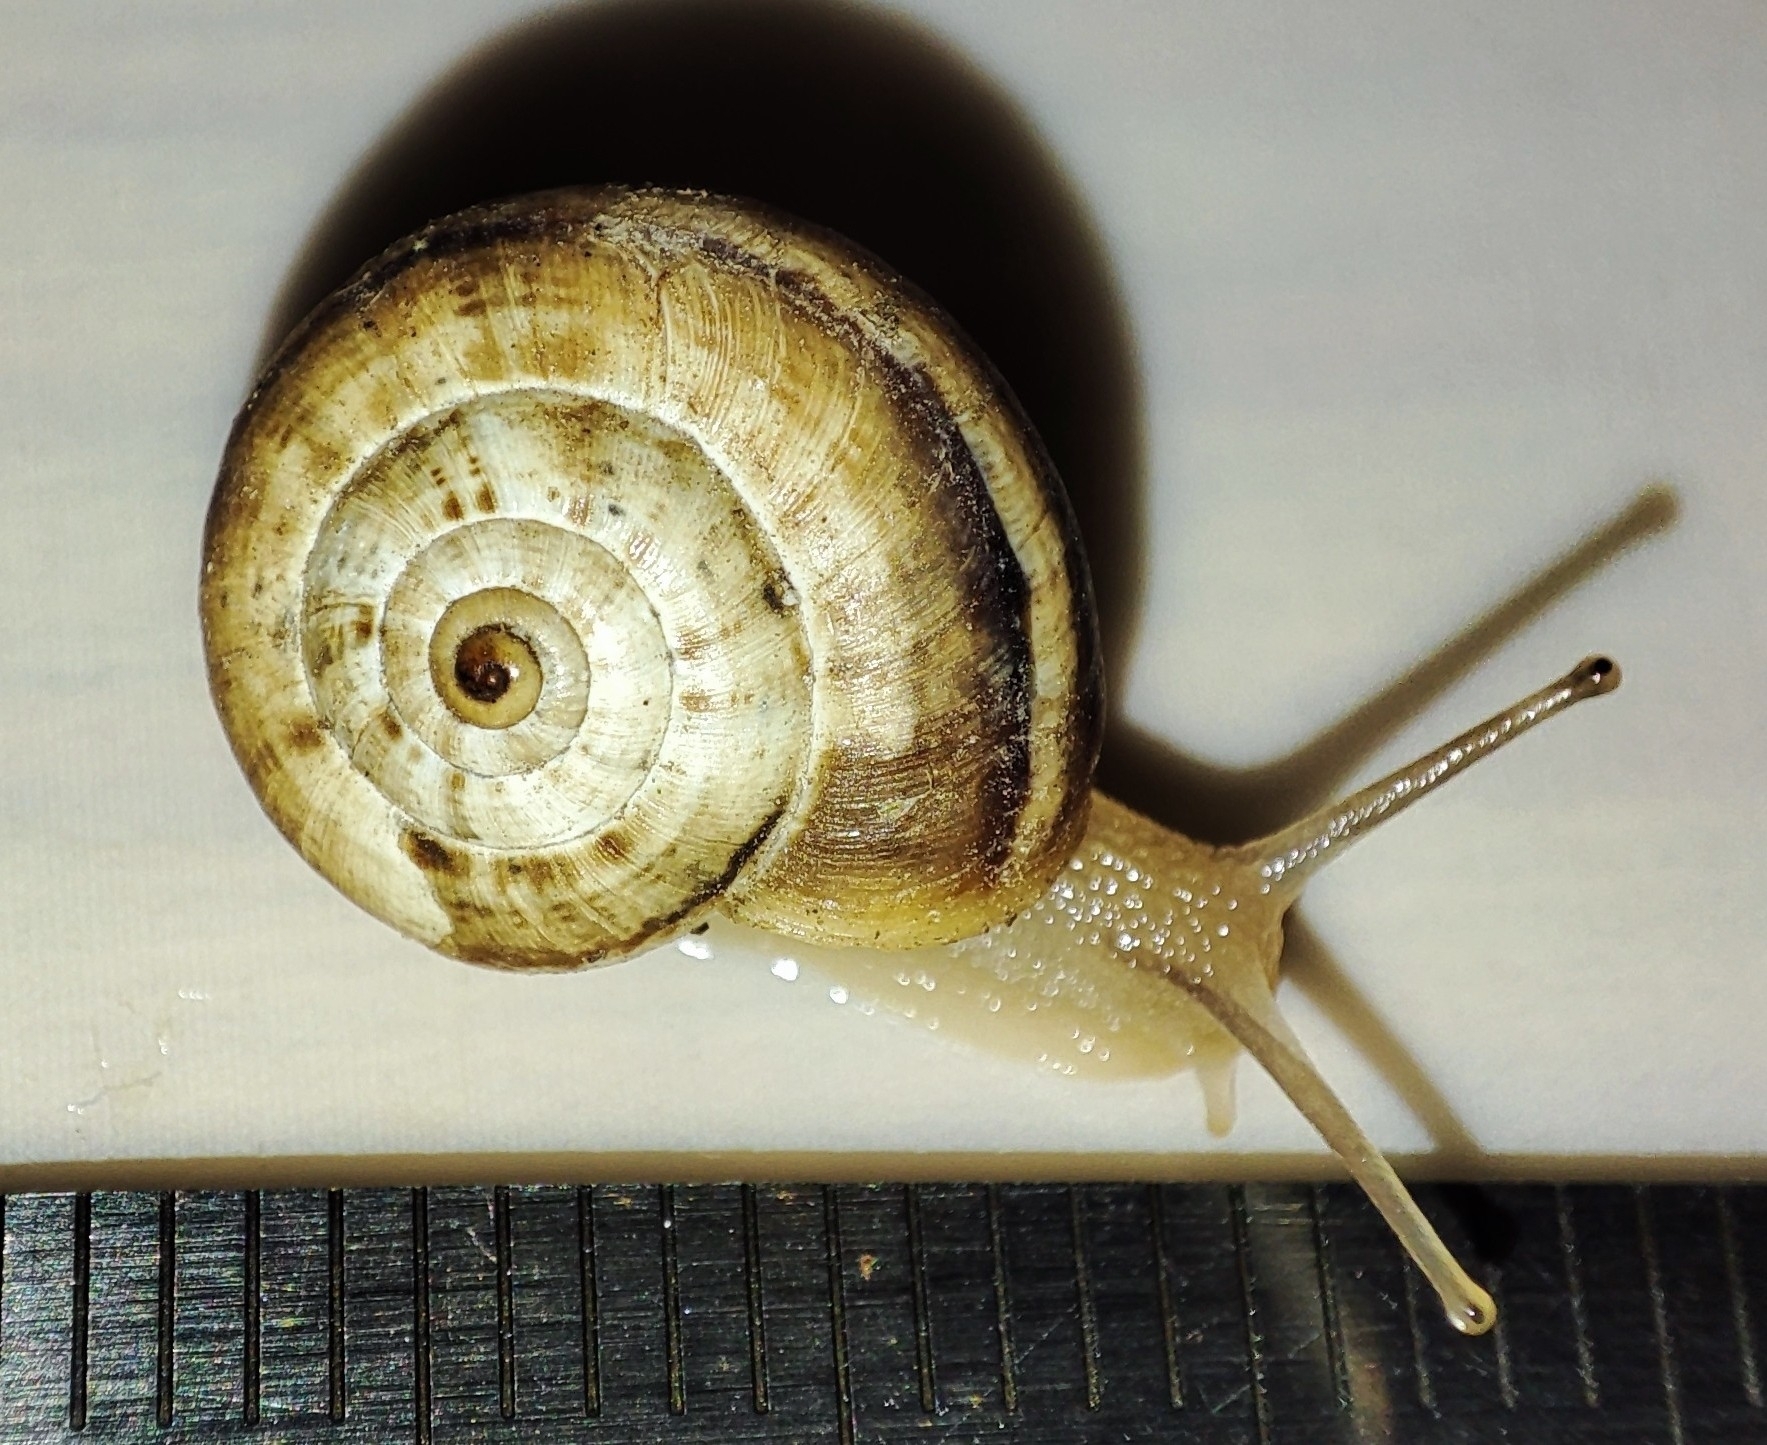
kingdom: Animalia
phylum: Mollusca
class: Gastropoda
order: Stylommatophora
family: Geomitridae
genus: Xeropicta
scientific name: Xeropicta krynickii
